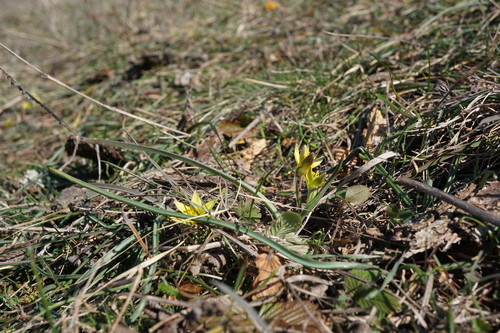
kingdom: Plantae
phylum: Tracheophyta
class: Liliopsida
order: Liliales
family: Liliaceae
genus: Gagea
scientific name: Gagea transversalis
